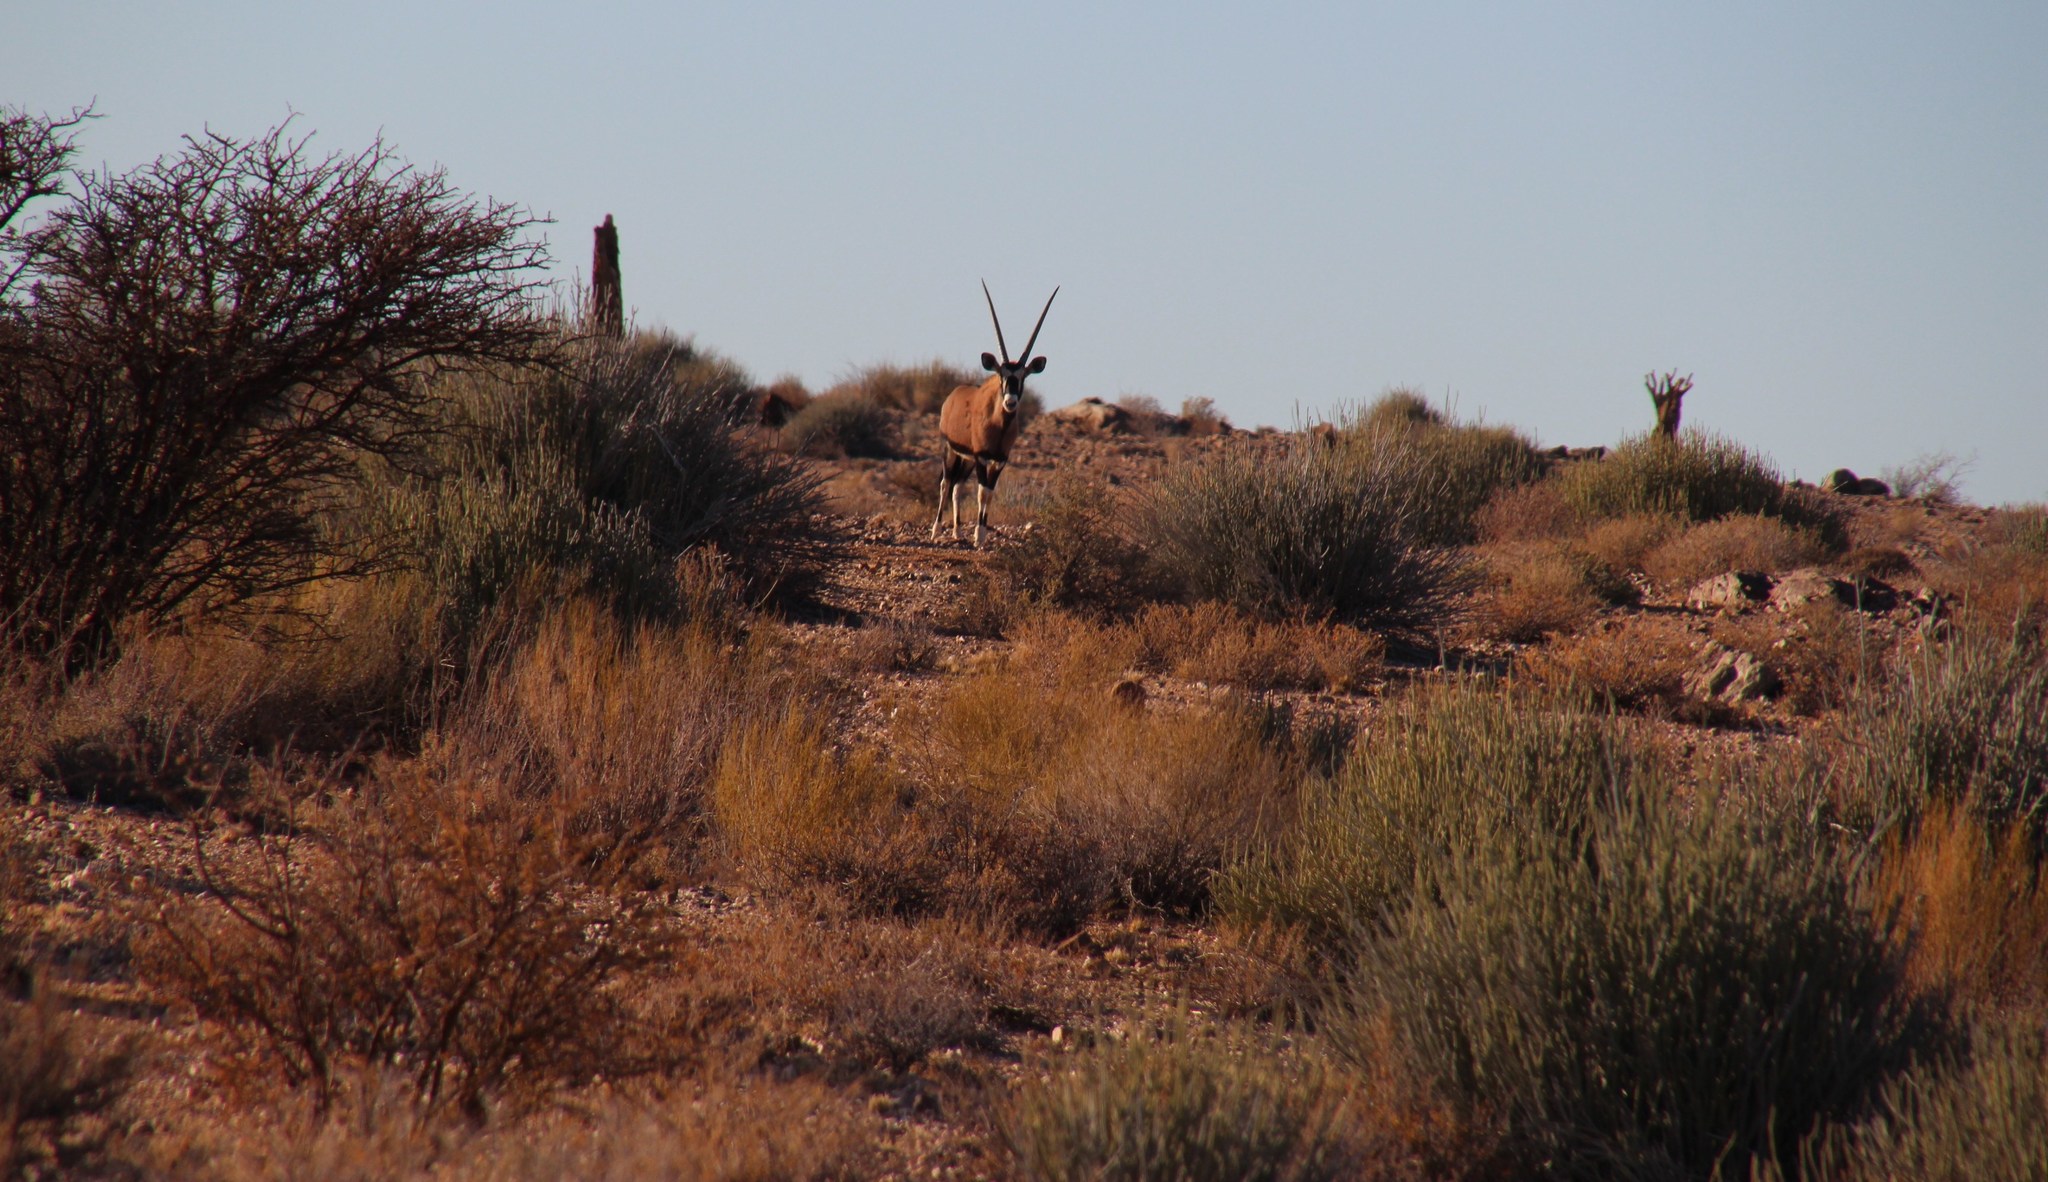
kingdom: Animalia
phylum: Chordata
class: Mammalia
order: Artiodactyla
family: Bovidae
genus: Oryx
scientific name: Oryx gazella
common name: Gemsbok
